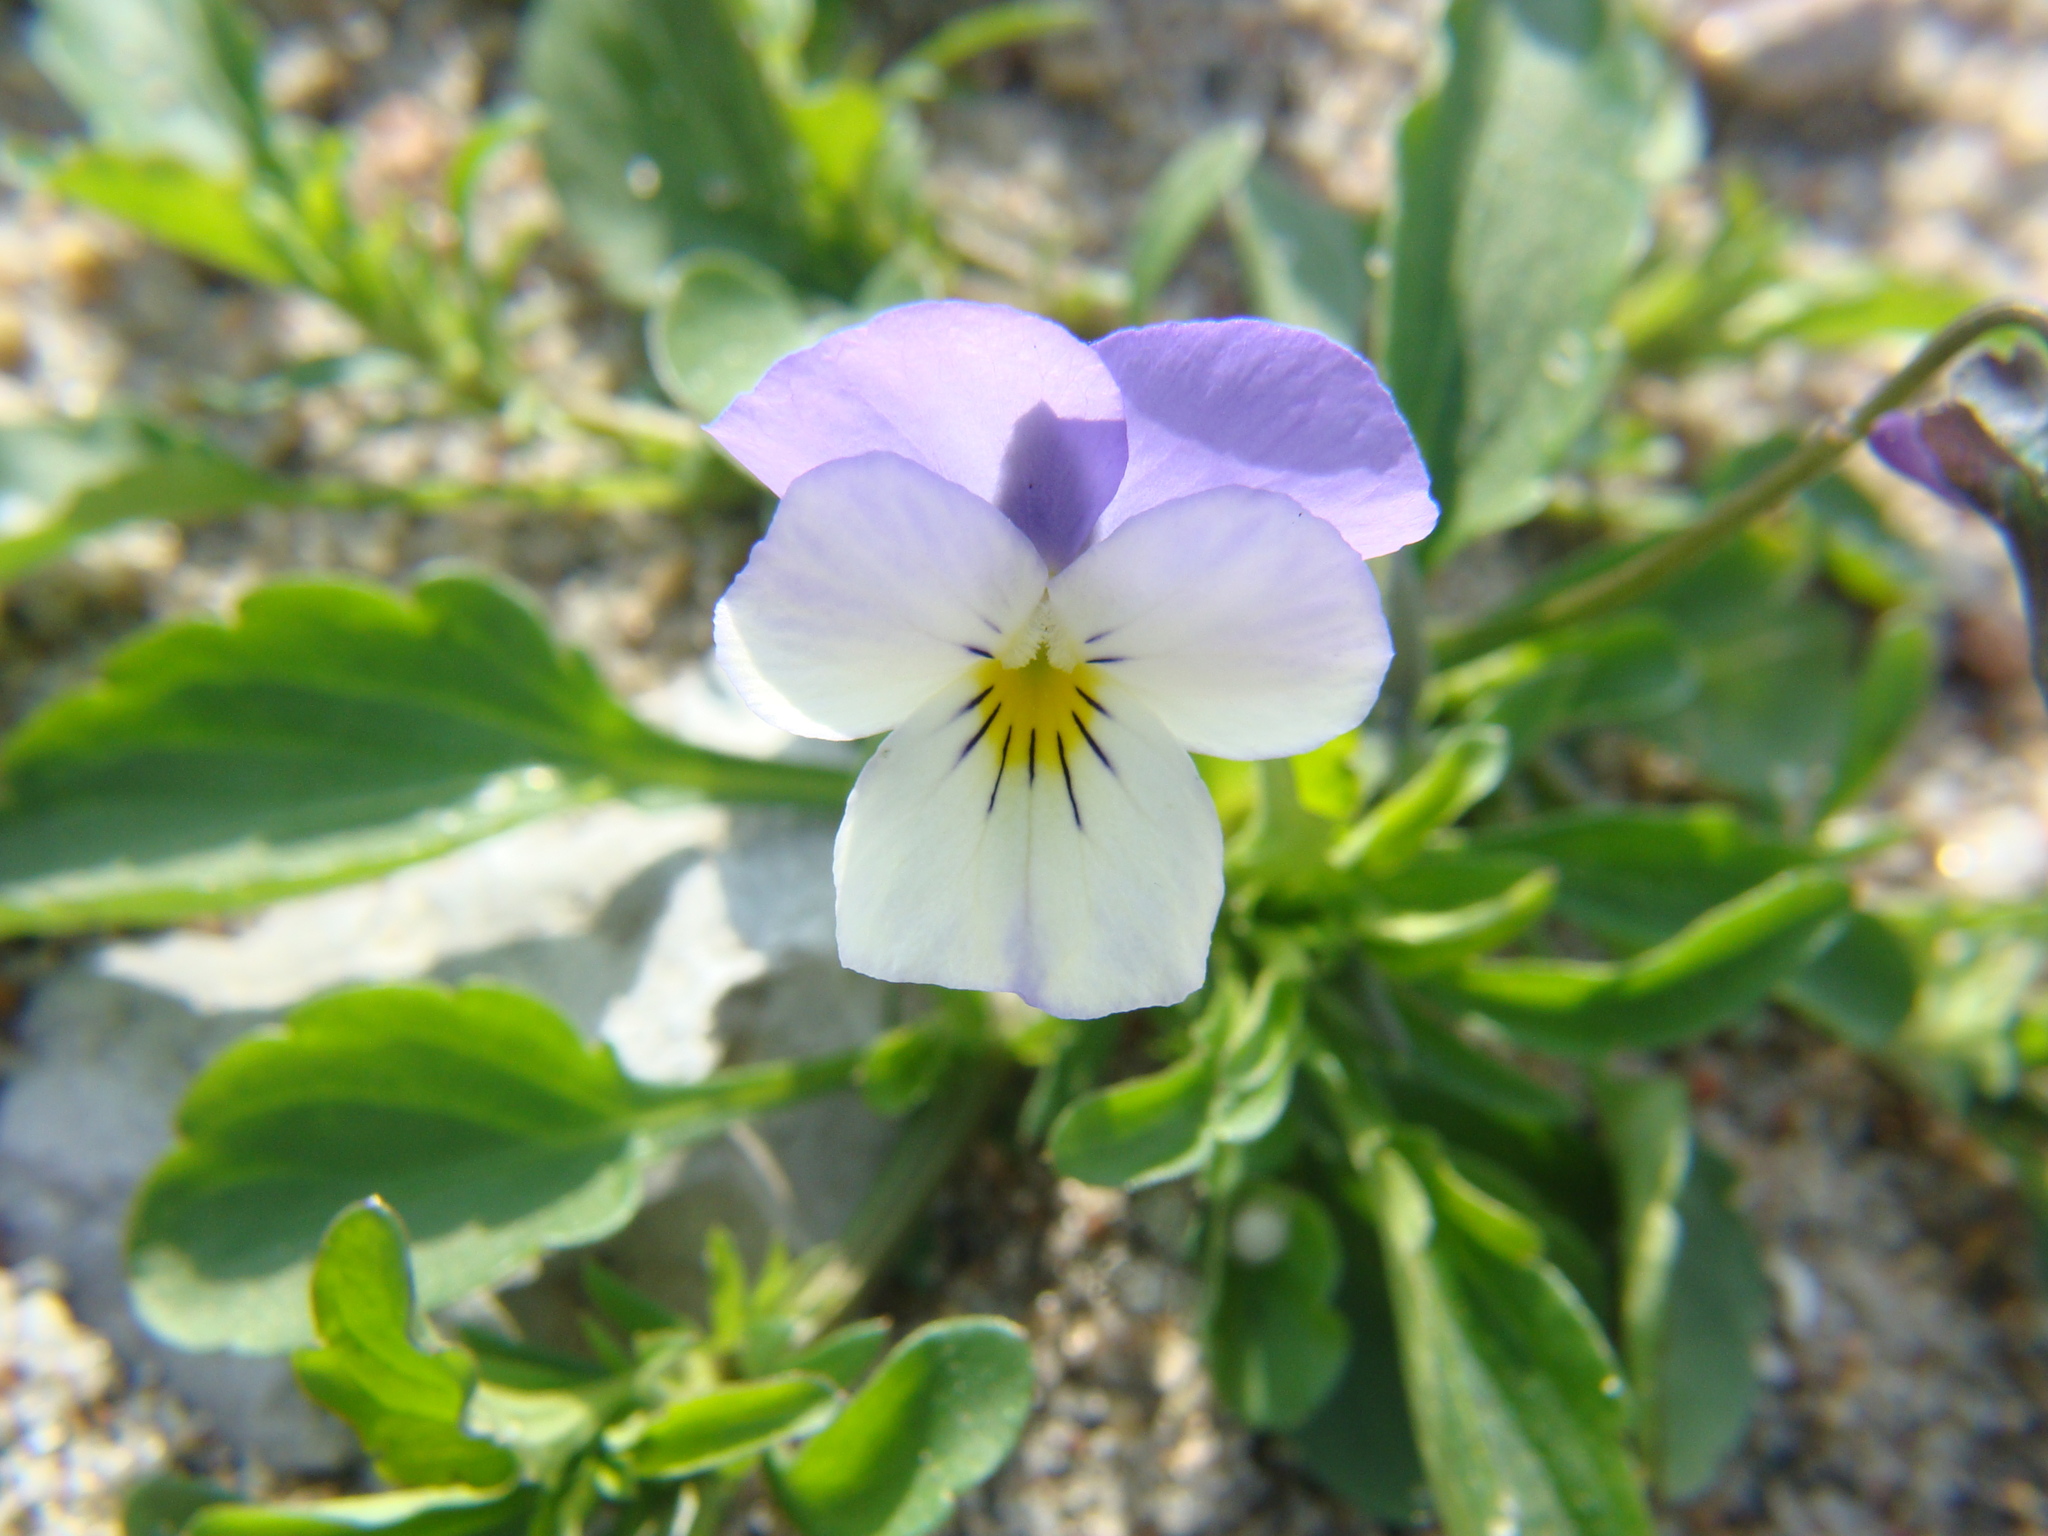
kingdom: Plantae
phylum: Tracheophyta
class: Magnoliopsida
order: Malpighiales
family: Violaceae
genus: Viola
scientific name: Viola tricolor
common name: Pansy
